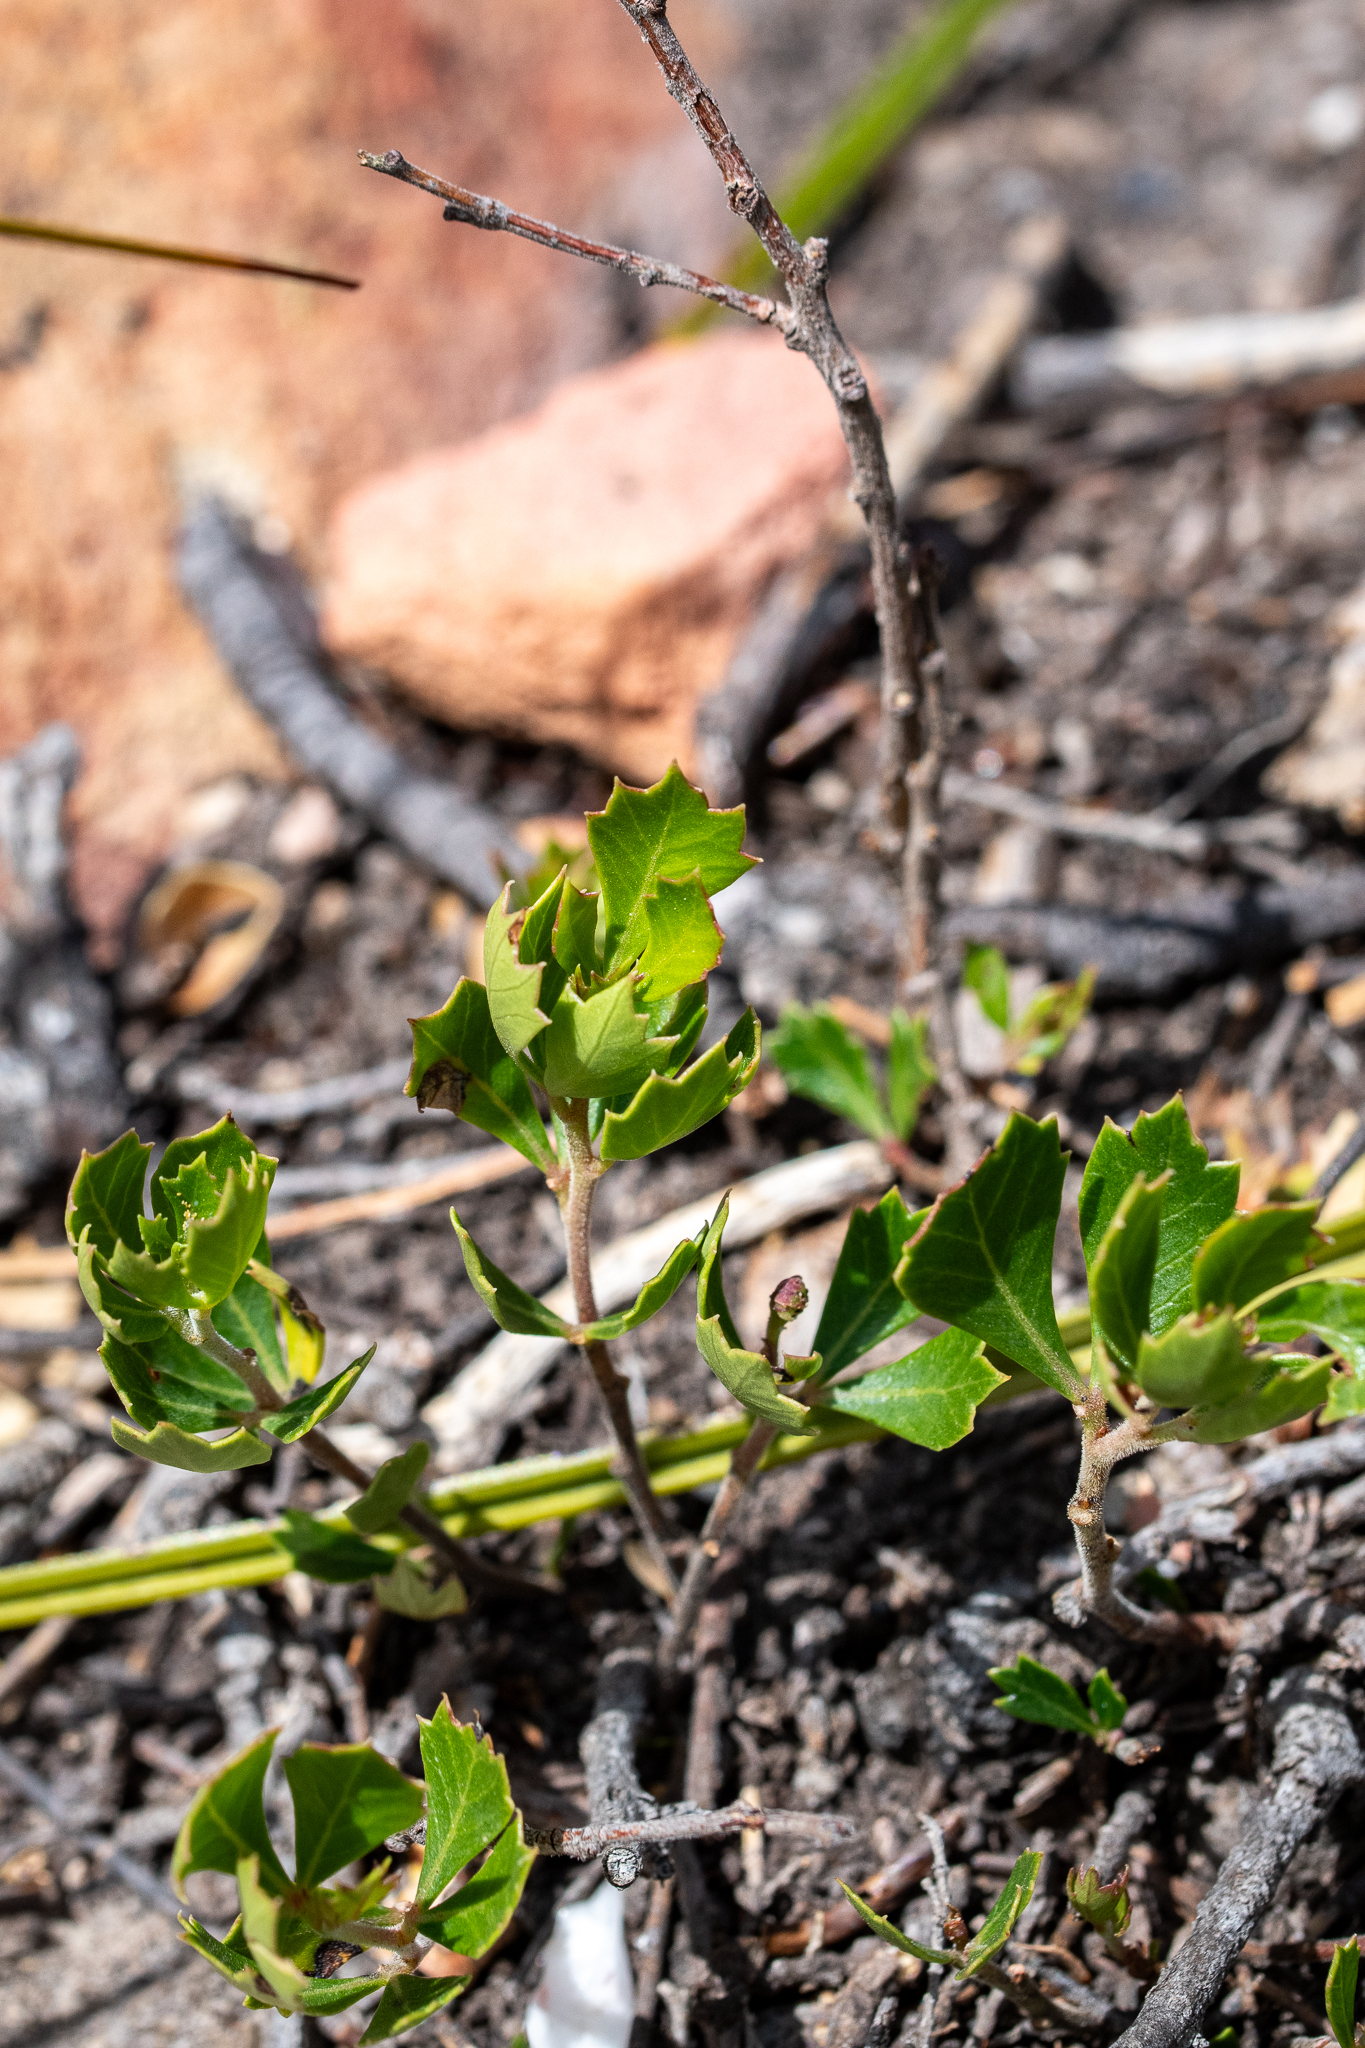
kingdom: Plantae
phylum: Tracheophyta
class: Magnoliopsida
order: Sapindales
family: Anacardiaceae
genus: Searsia
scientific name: Searsia cuneifolia
